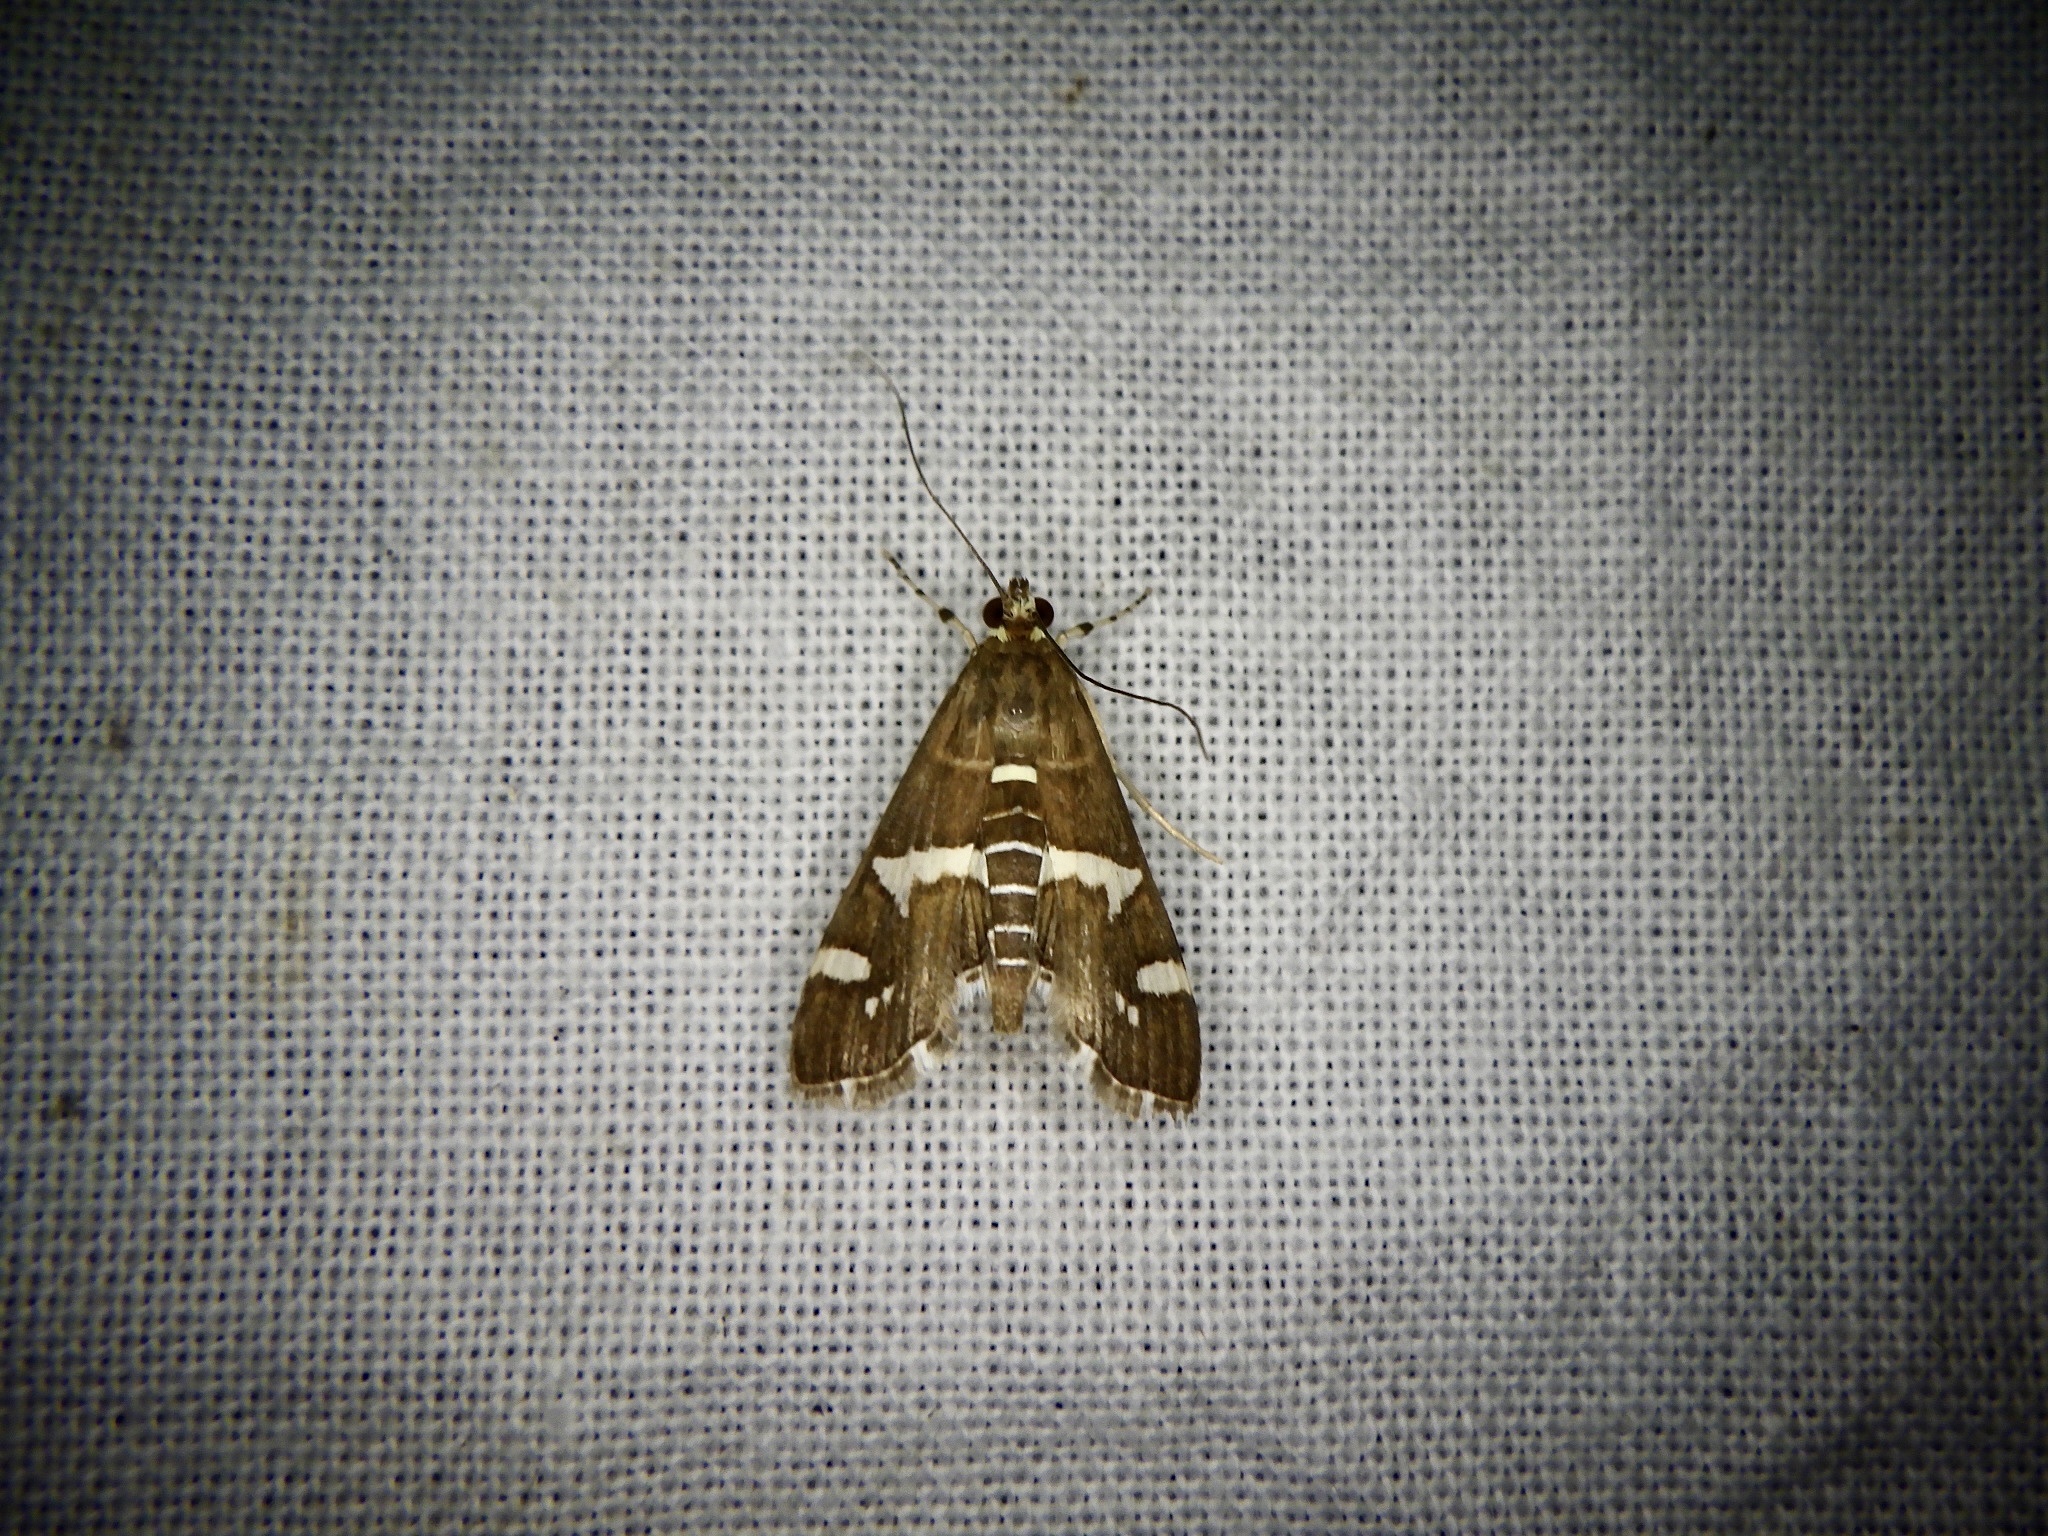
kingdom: Animalia
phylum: Arthropoda
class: Insecta
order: Lepidoptera
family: Crambidae
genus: Spoladea
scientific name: Spoladea recurvalis
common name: Beet webworm moth
